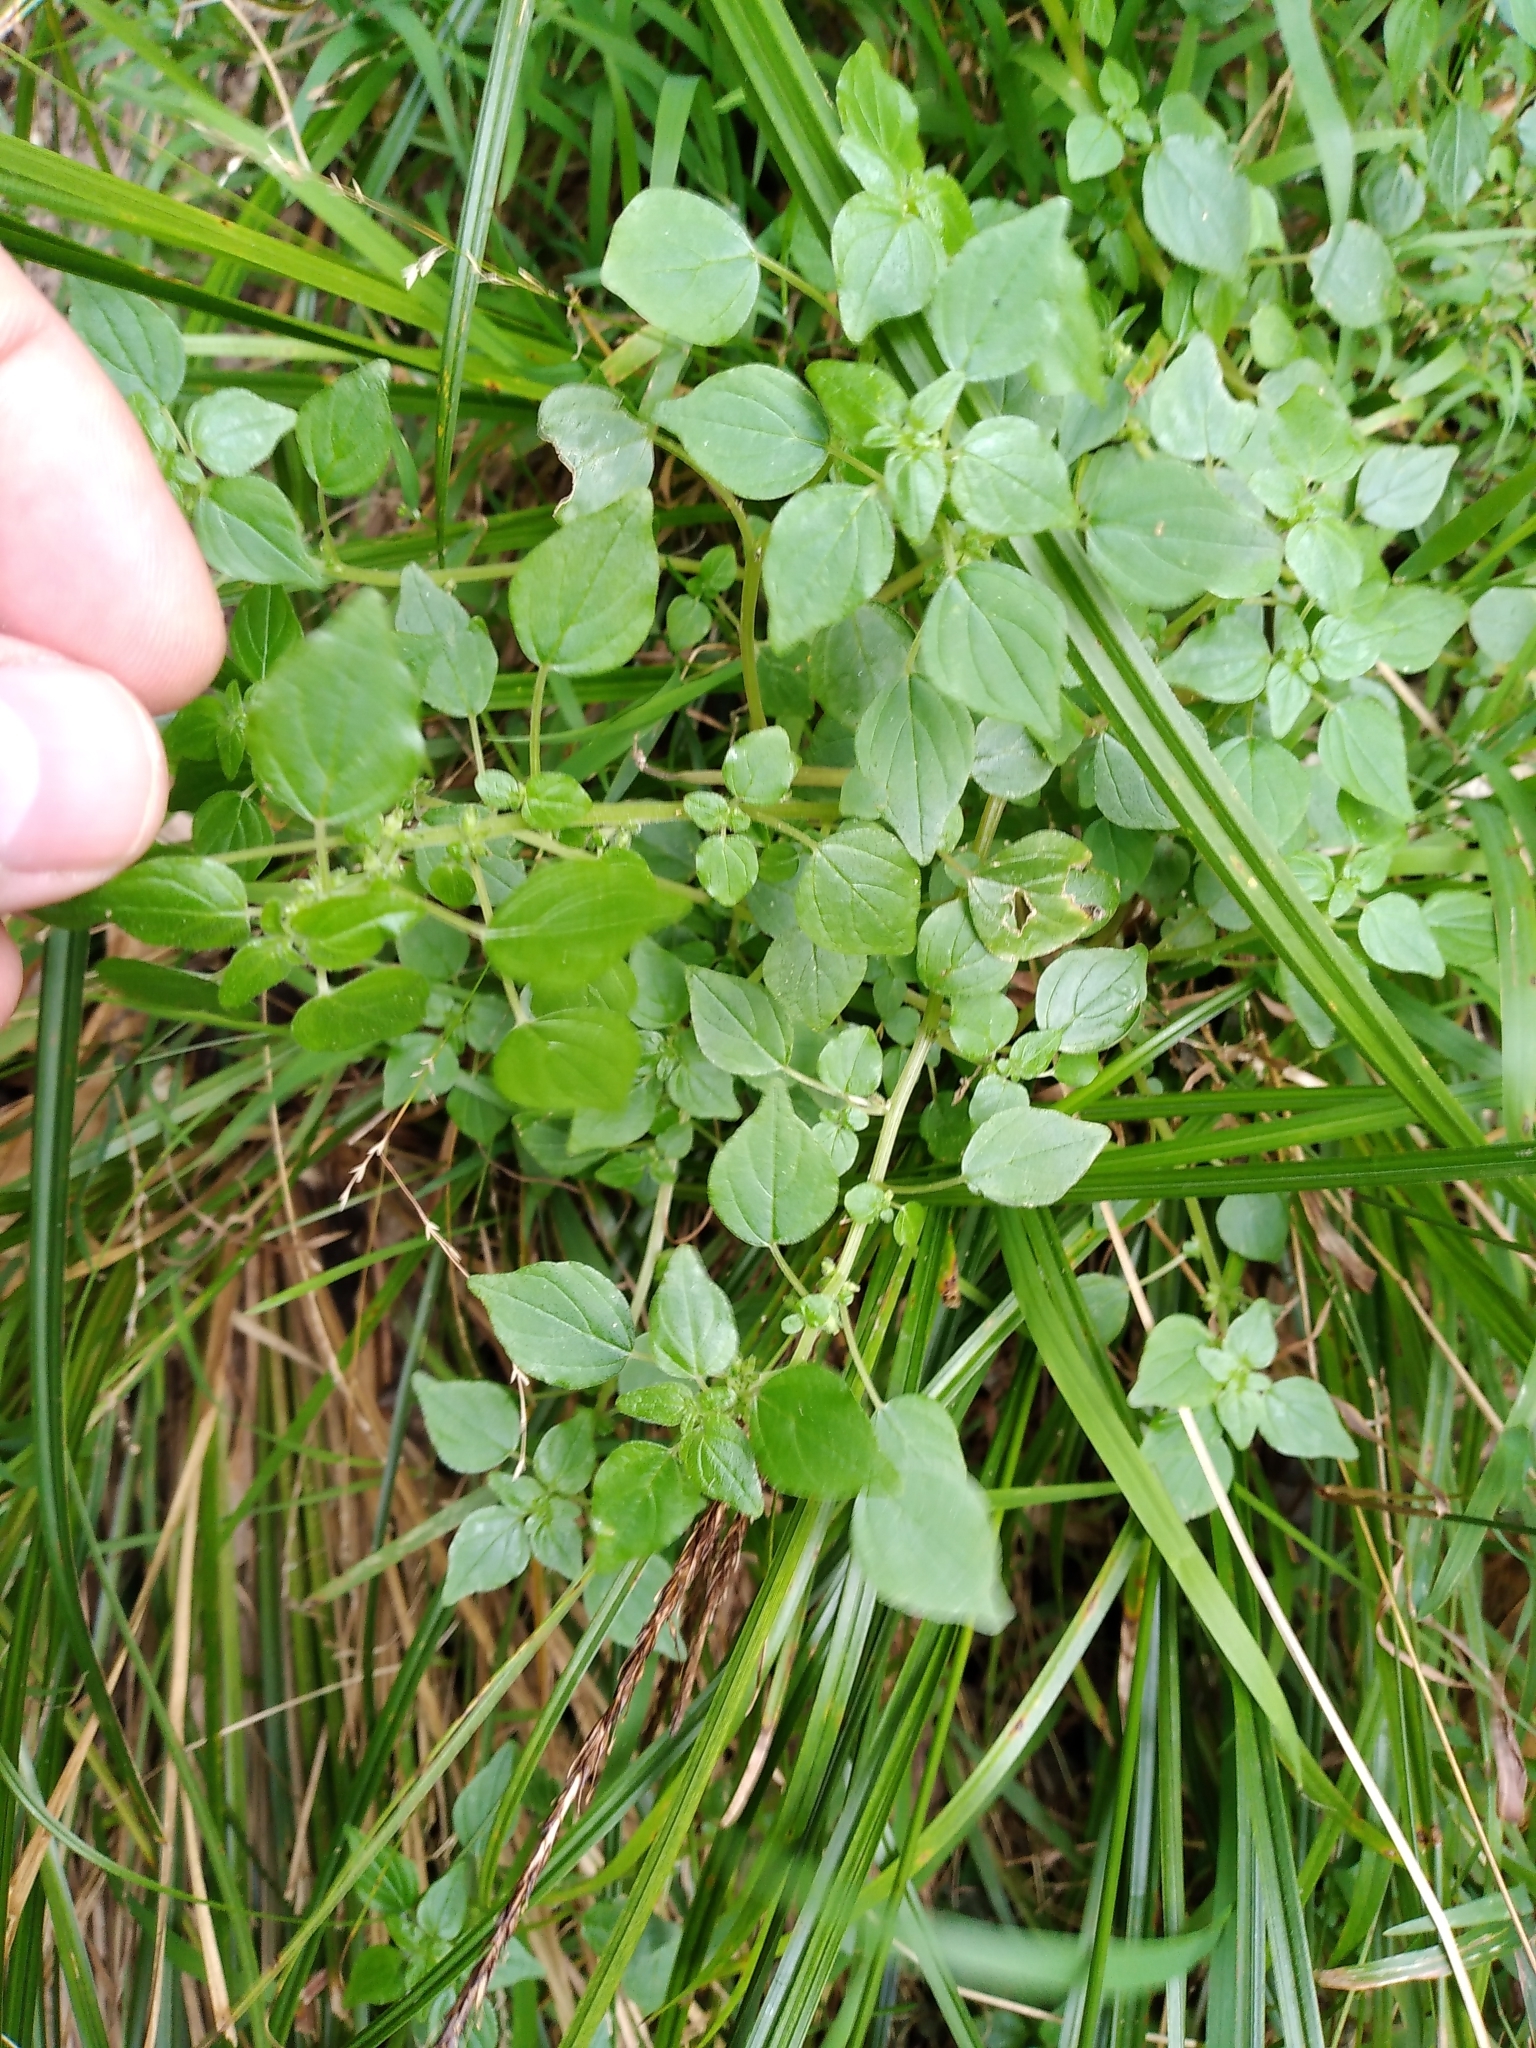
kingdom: Plantae
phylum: Tracheophyta
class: Magnoliopsida
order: Rosales
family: Urticaceae
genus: Parietaria
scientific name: Parietaria debilis
